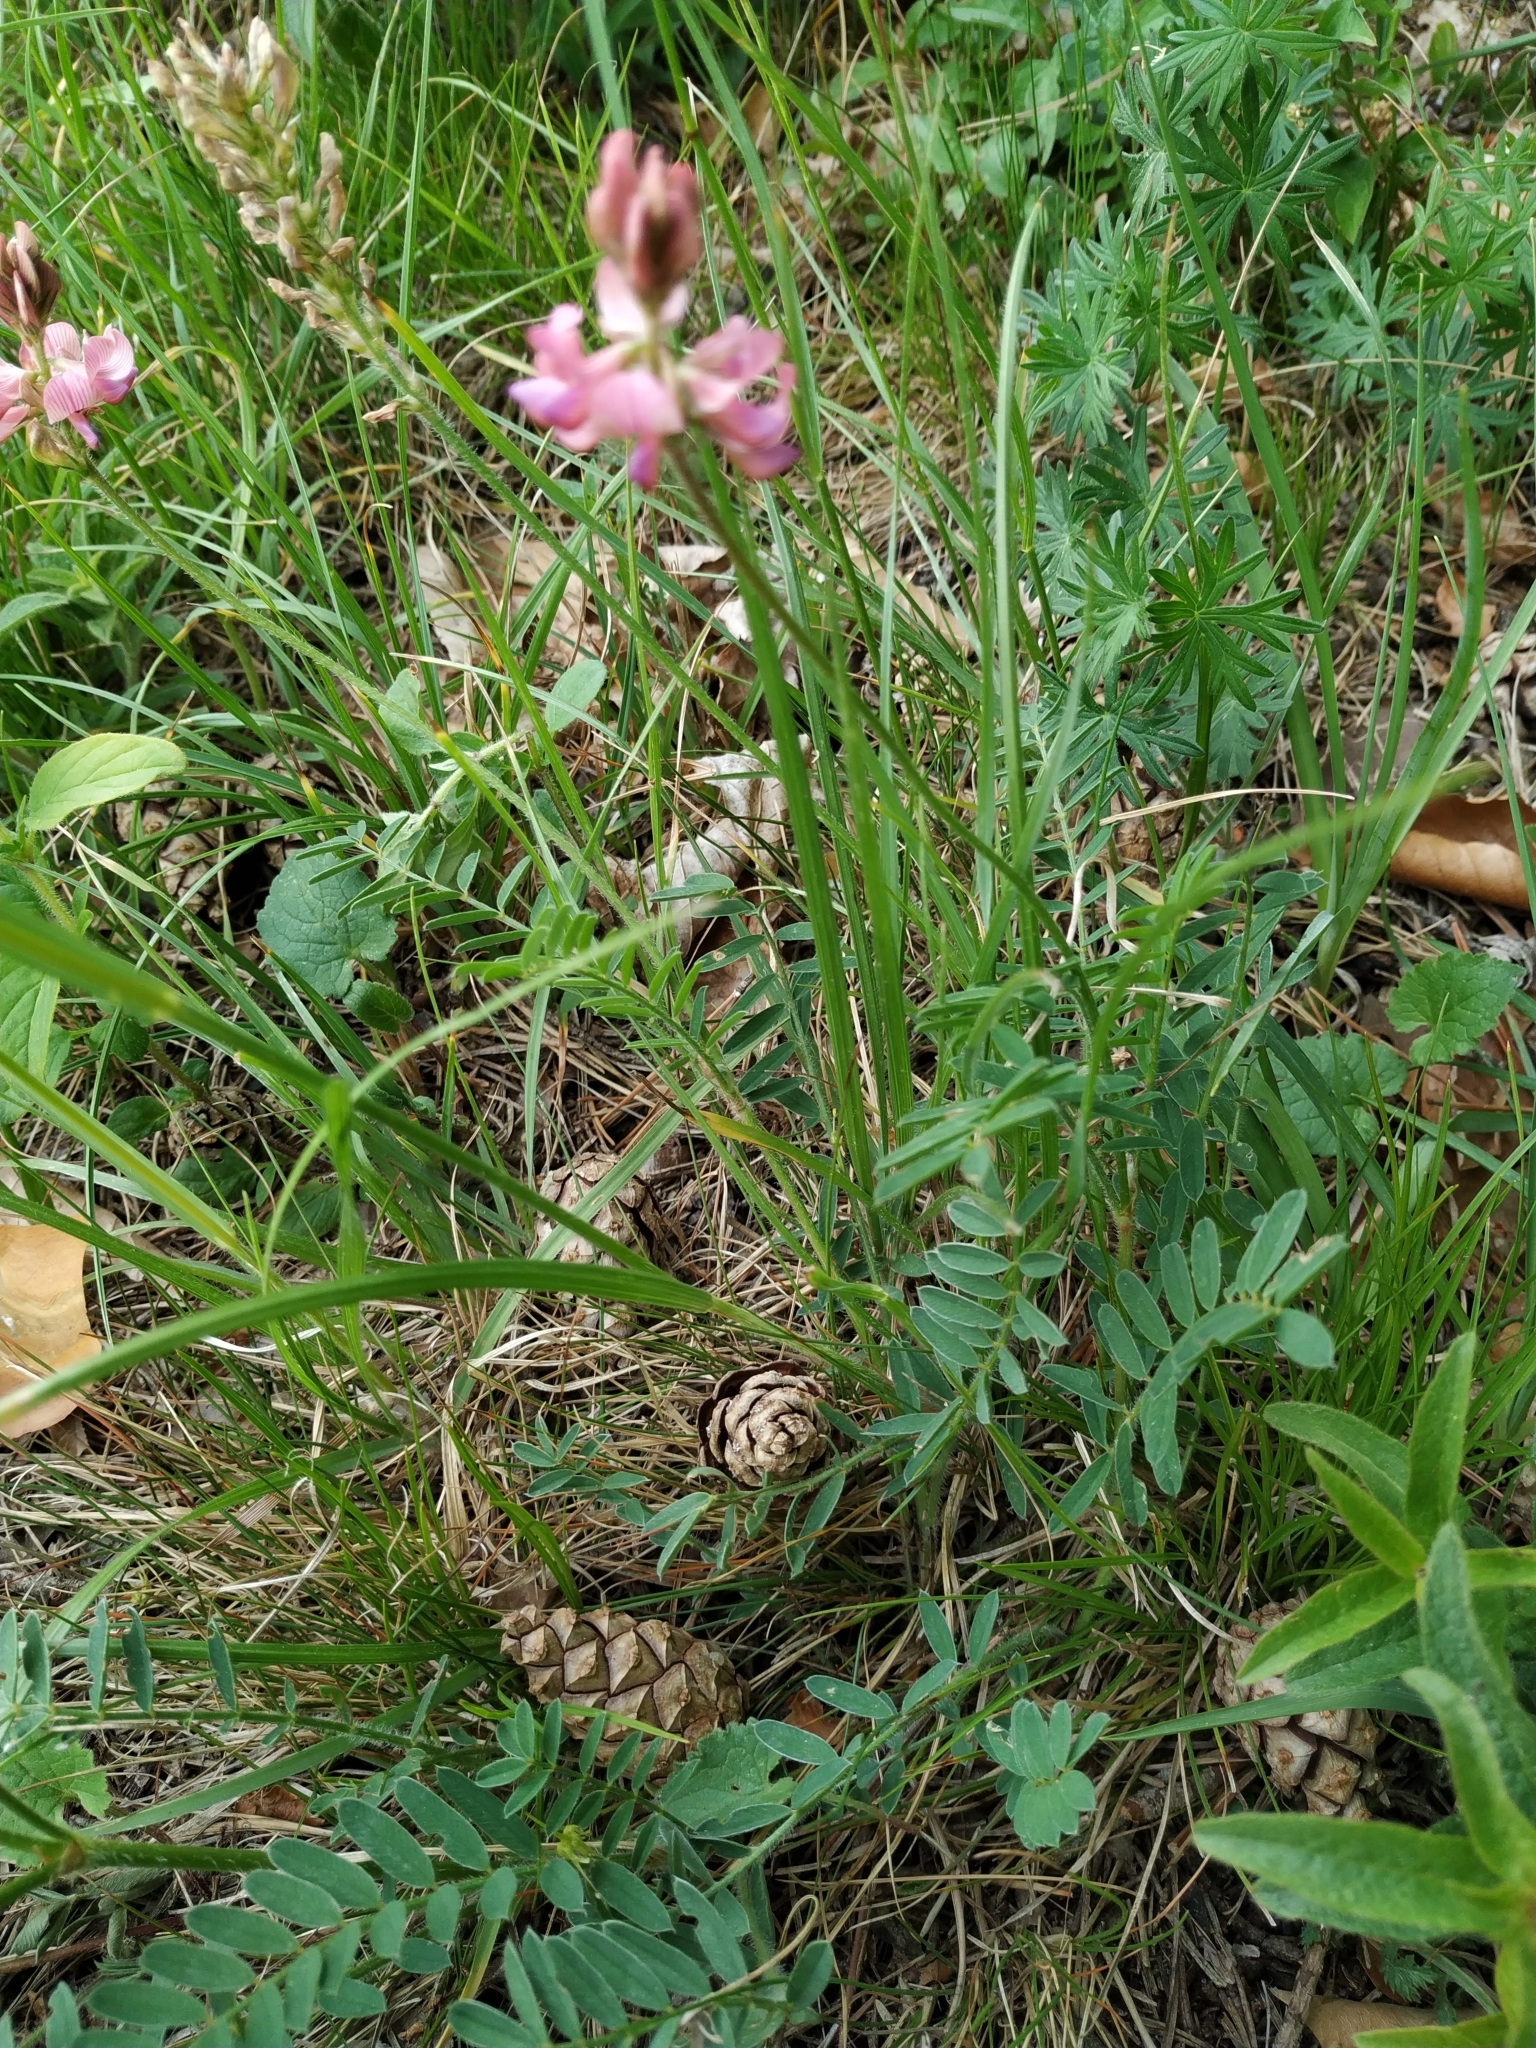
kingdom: Plantae
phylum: Tracheophyta
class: Magnoliopsida
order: Fabales
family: Fabaceae
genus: Onobrychis
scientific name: Onobrychis viciifolia
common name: Sainfoin
